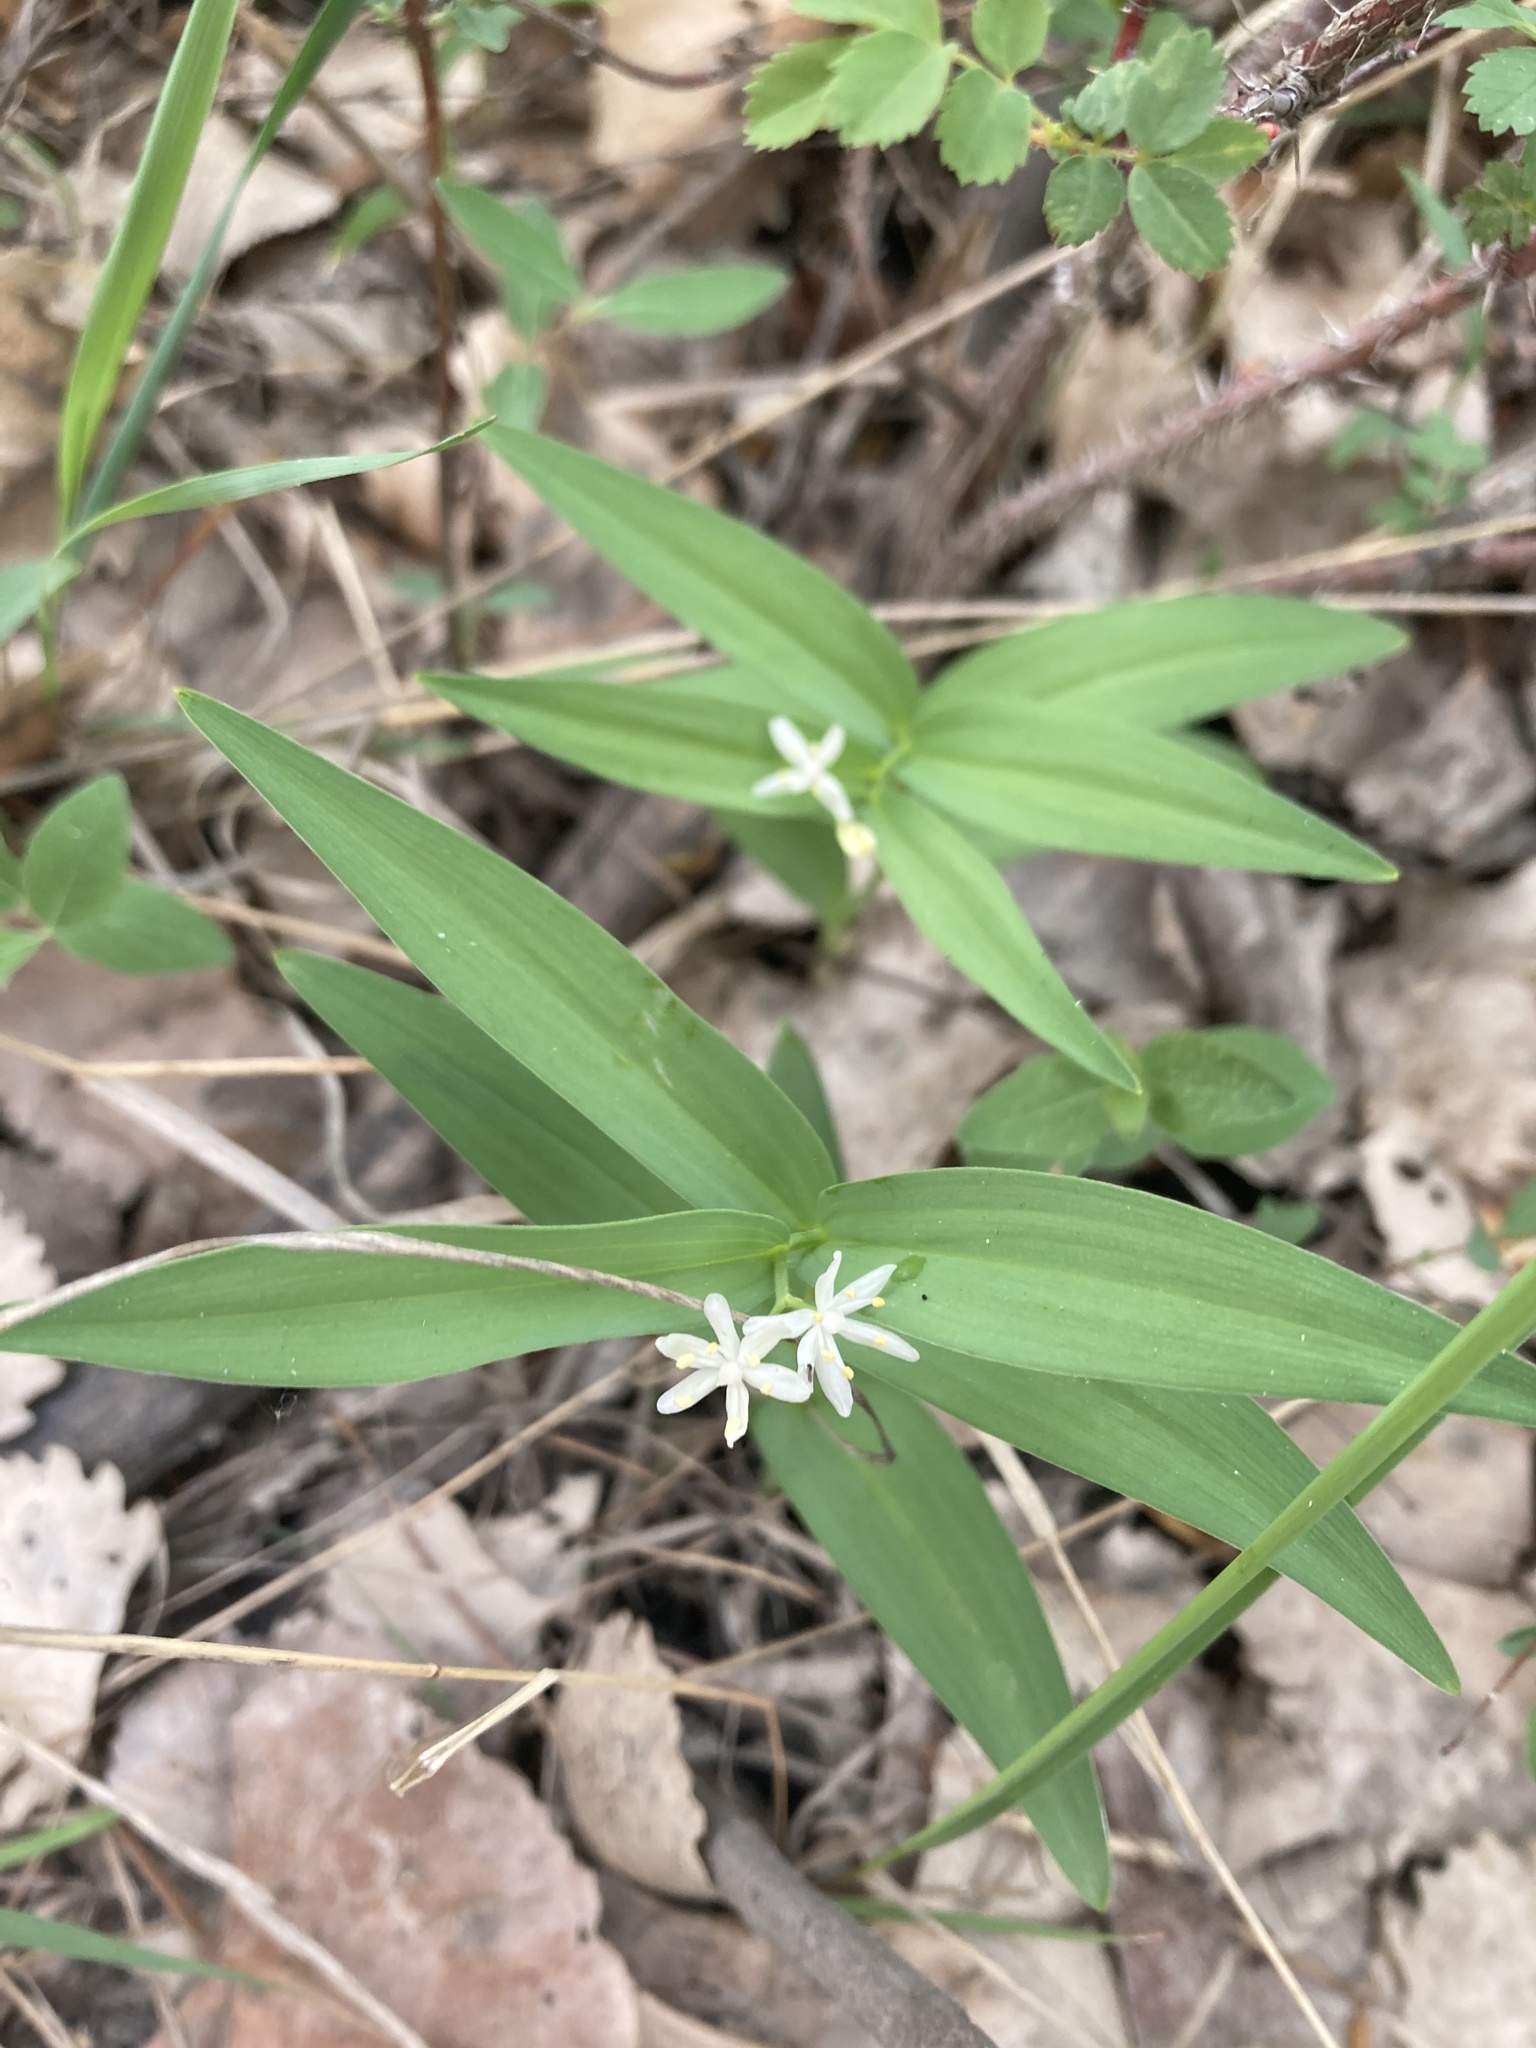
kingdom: Plantae
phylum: Tracheophyta
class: Liliopsida
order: Asparagales
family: Asparagaceae
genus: Maianthemum
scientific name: Maianthemum stellatum
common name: Little false solomon's seal
